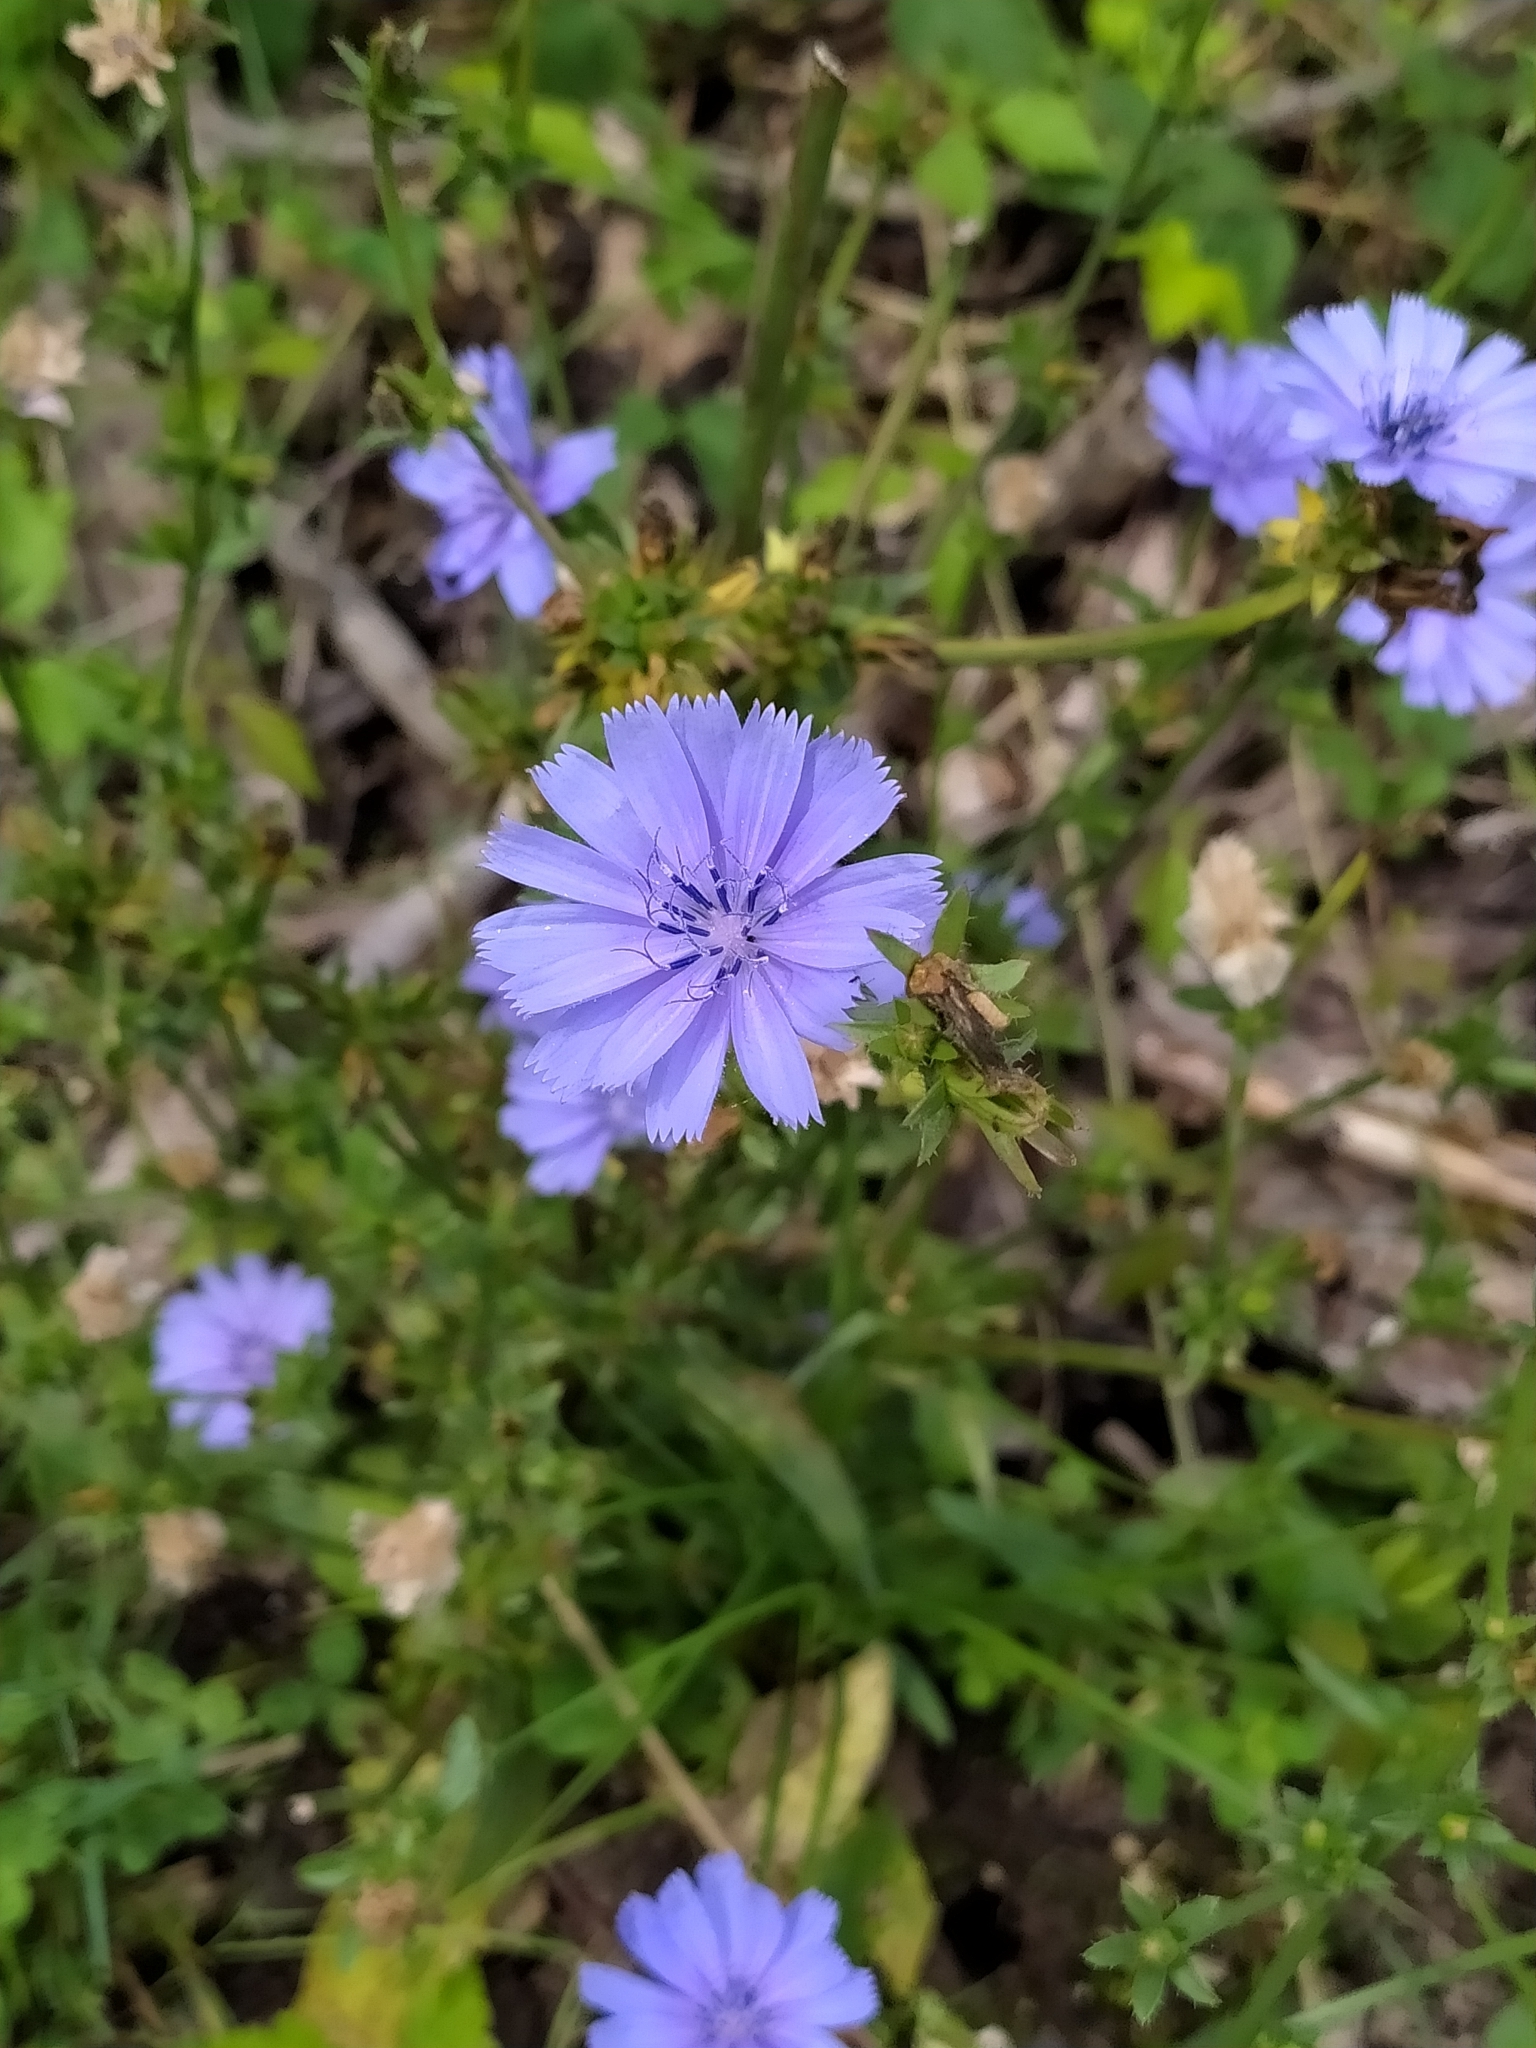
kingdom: Plantae
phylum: Tracheophyta
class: Magnoliopsida
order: Asterales
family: Asteraceae
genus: Cichorium
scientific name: Cichorium intybus
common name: Chicory
